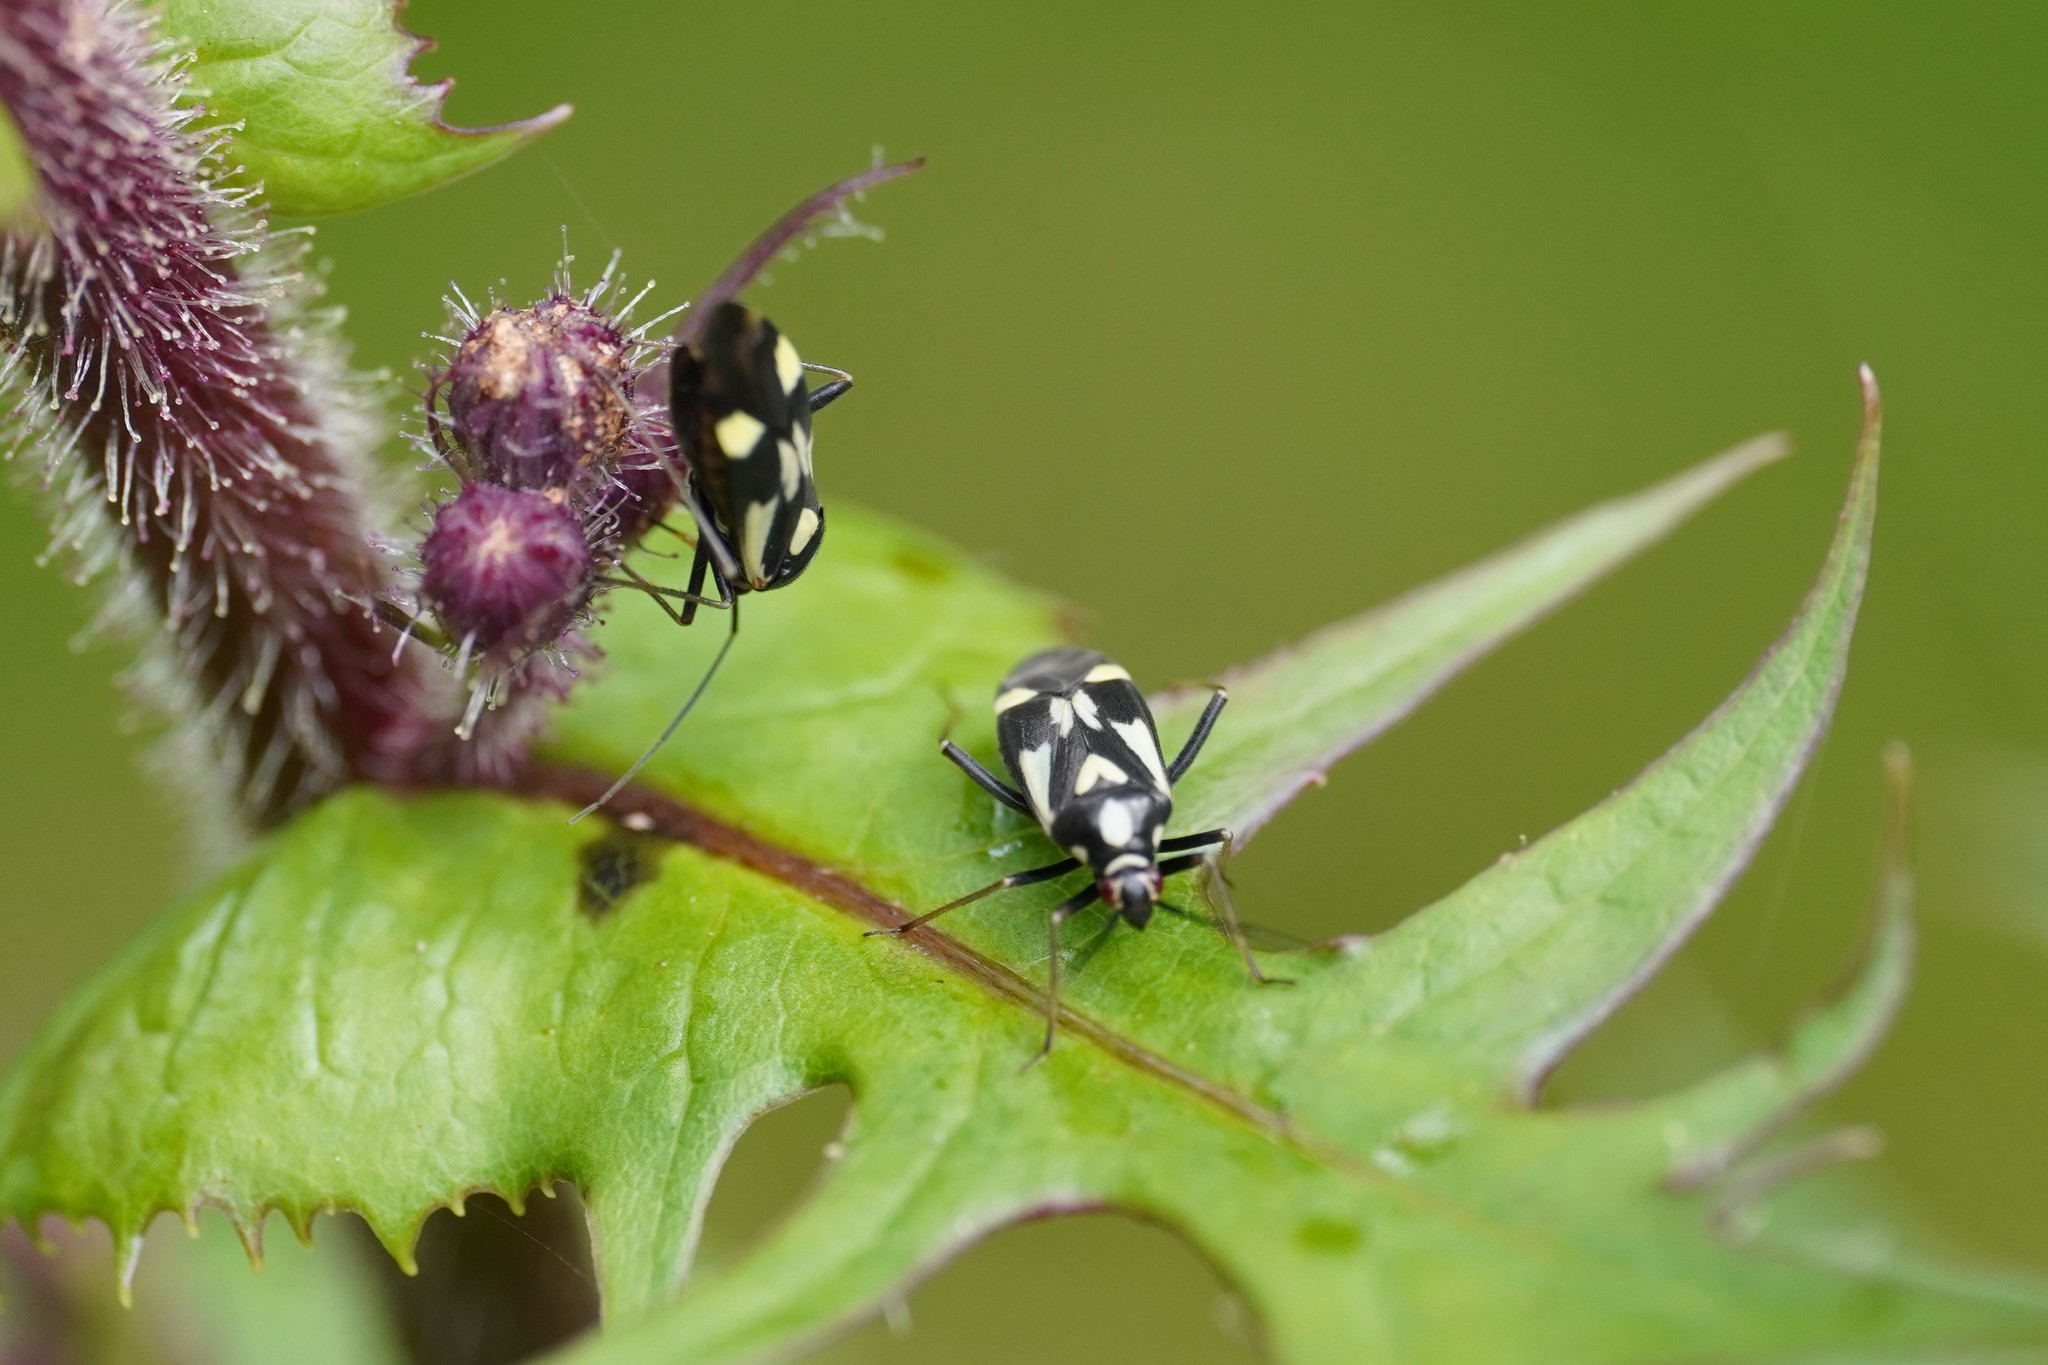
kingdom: Animalia
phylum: Arthropoda
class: Insecta
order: Hemiptera
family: Miridae
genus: Grypocoris
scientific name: Grypocoris sexguttatus
